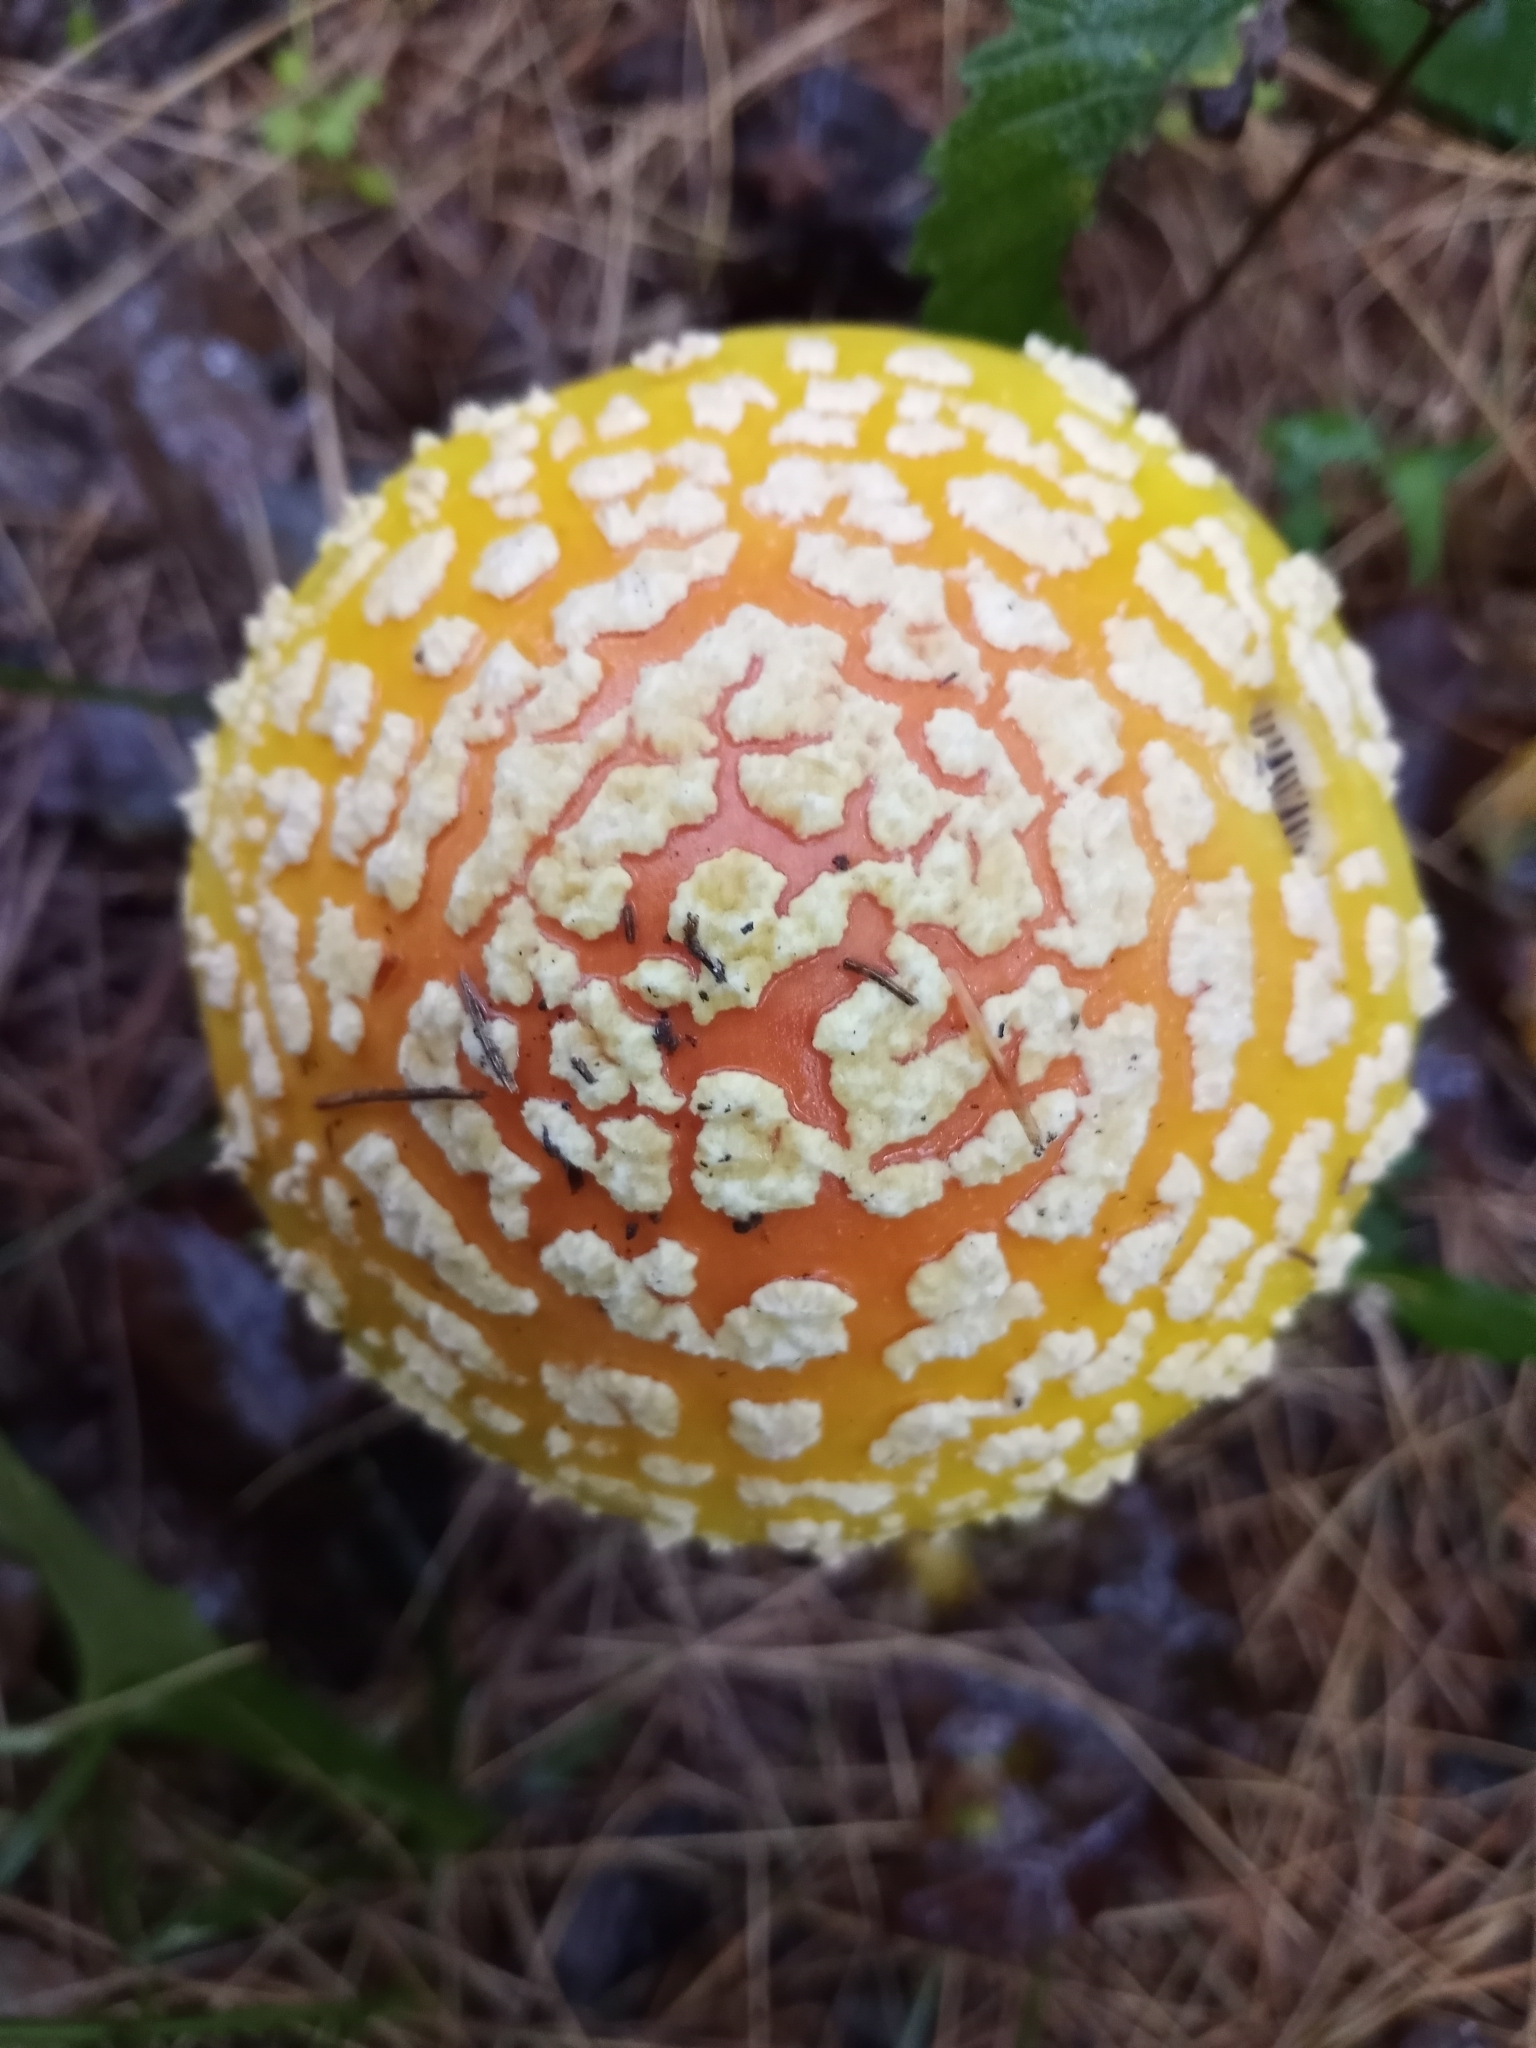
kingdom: Fungi
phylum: Basidiomycota
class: Agaricomycetes
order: Agaricales
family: Amanitaceae
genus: Amanita
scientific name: Amanita muscaria
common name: Fly agaric
